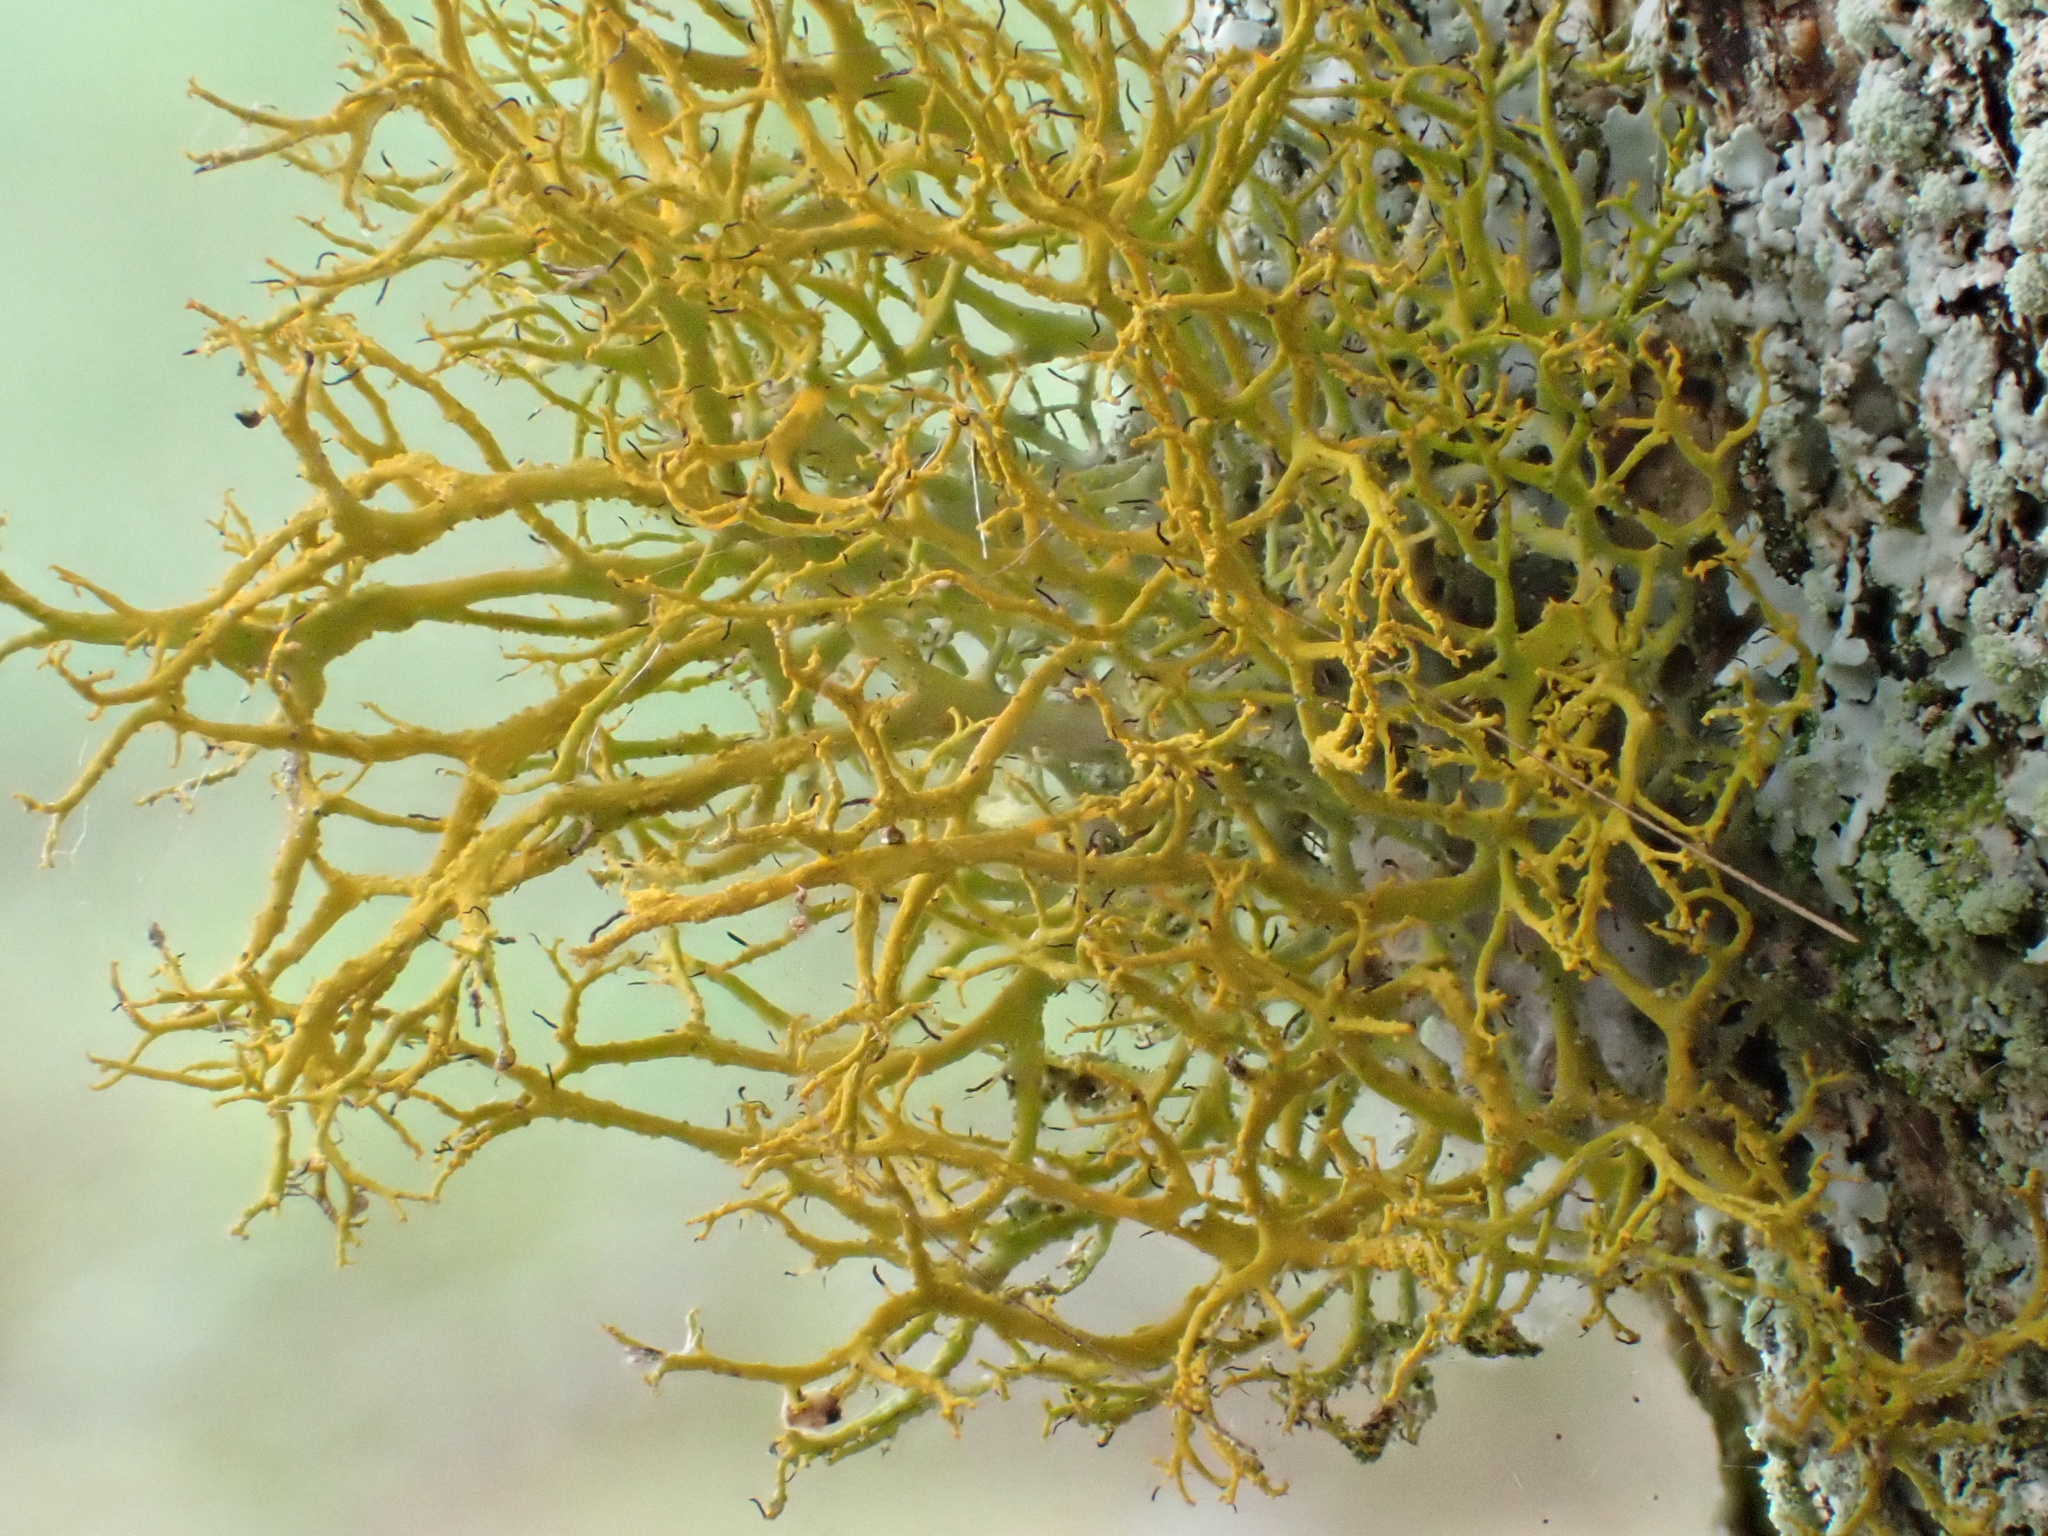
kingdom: Fungi
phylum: Ascomycota
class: Lecanoromycetes
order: Teloschistales
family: Teloschistaceae
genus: Teloschistes
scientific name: Teloschistes flavicans
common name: Golden hair-lichen
